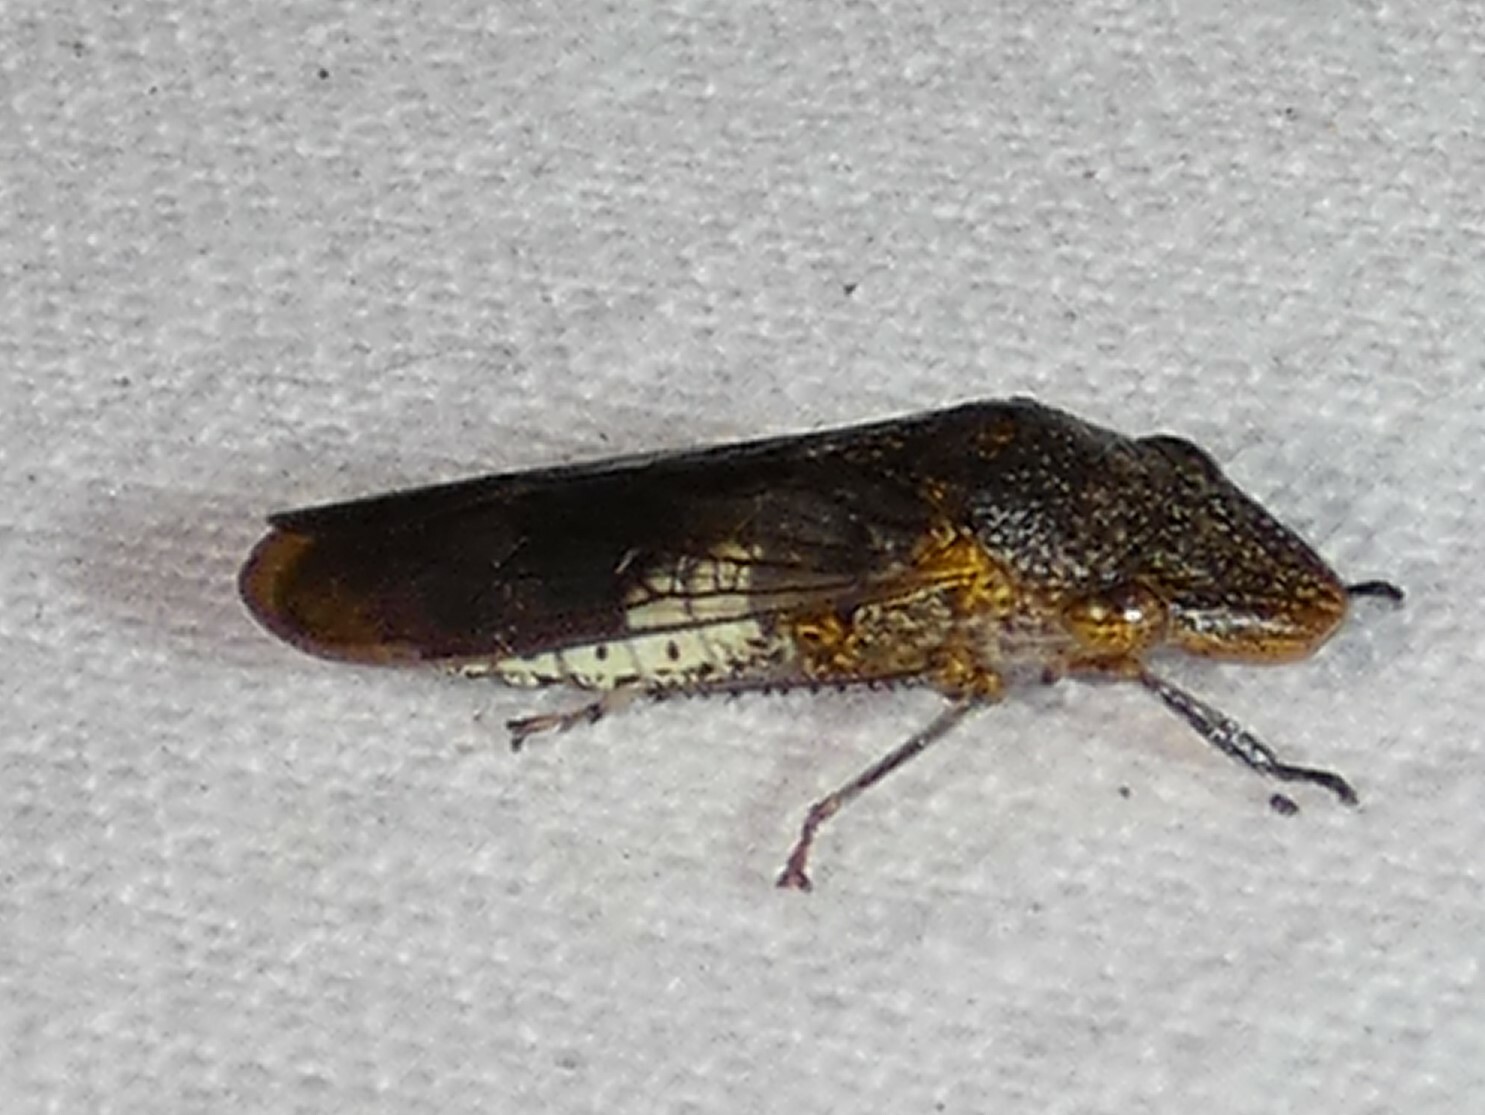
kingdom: Animalia
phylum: Arthropoda
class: Insecta
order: Hemiptera
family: Cicadellidae
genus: Homalodisca
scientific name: Homalodisca vitripennis
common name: Glassy-winged sharpshooter
